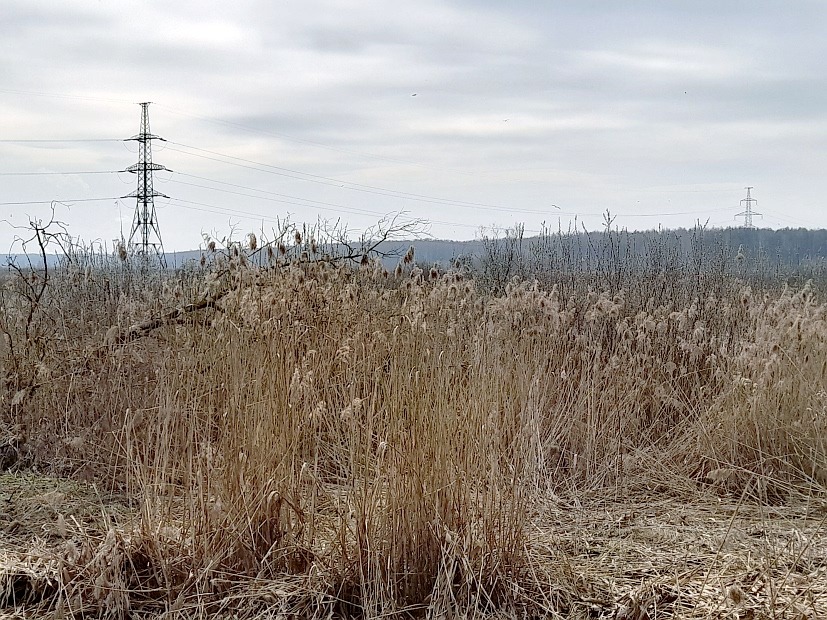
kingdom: Plantae
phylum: Tracheophyta
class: Liliopsida
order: Poales
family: Poaceae
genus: Phragmites
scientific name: Phragmites australis
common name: Common reed
